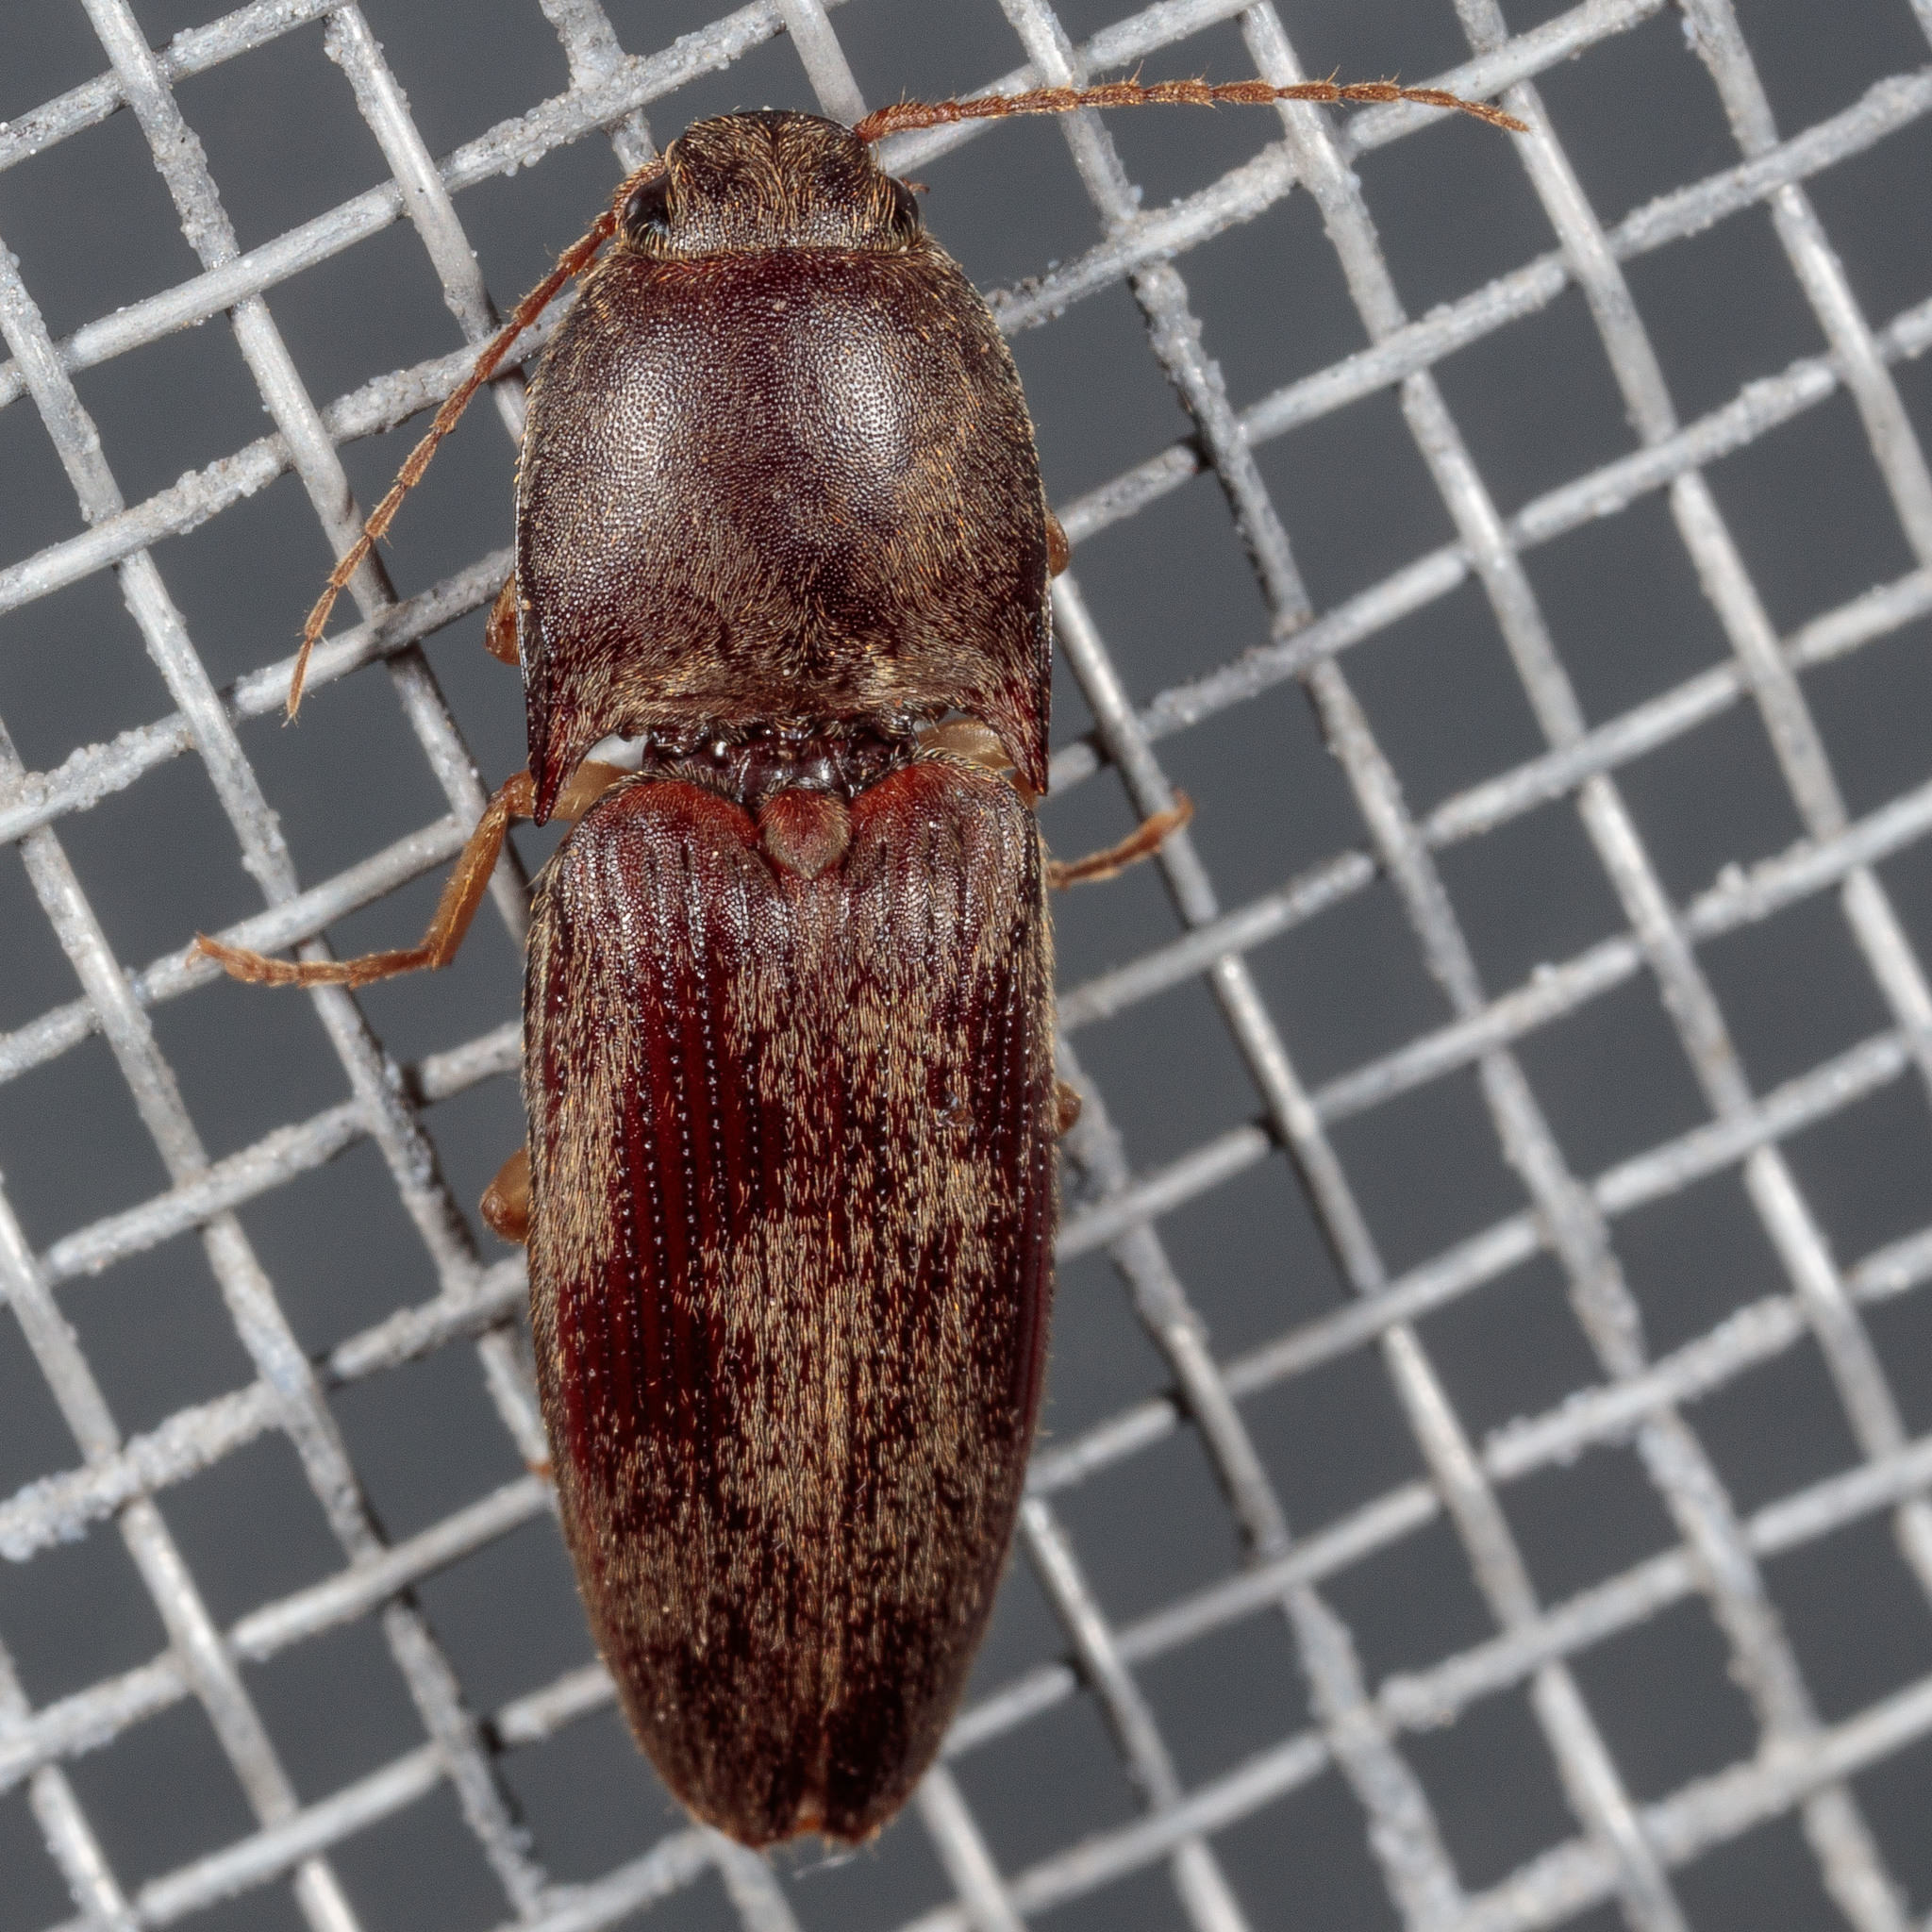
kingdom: Animalia
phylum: Arthropoda
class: Insecta
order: Coleoptera
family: Elateridae
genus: Conoderus
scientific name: Conoderus exsul
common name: Click beetle
